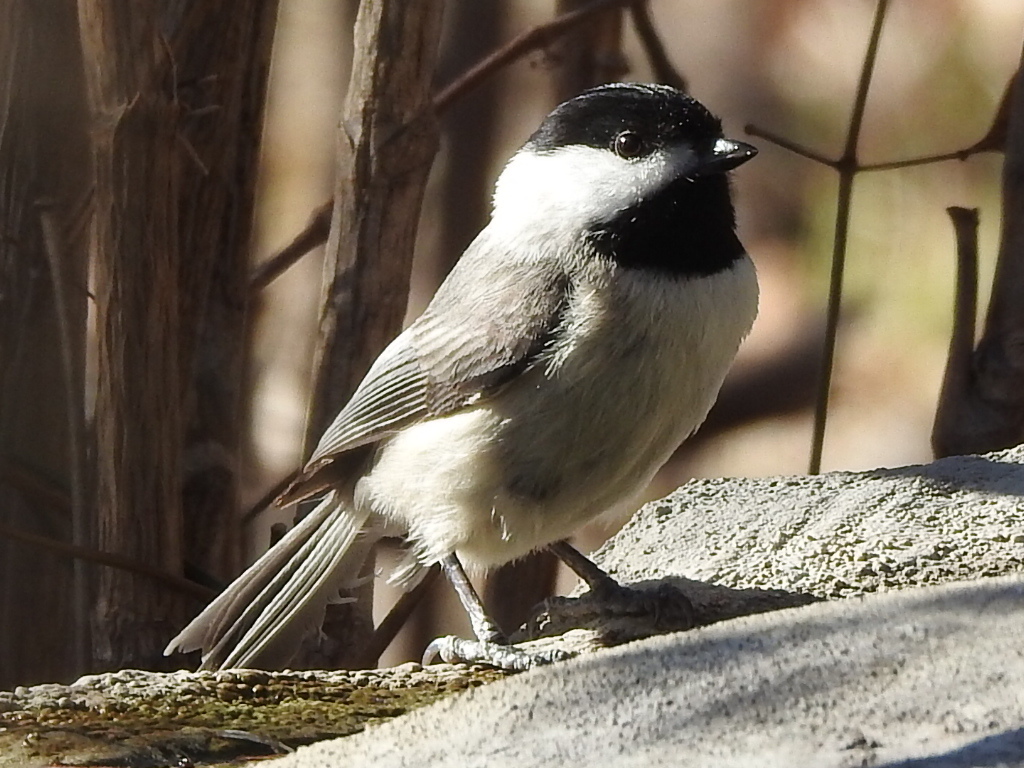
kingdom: Animalia
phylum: Chordata
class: Aves
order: Passeriformes
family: Paridae
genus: Poecile
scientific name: Poecile carolinensis
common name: Carolina chickadee
